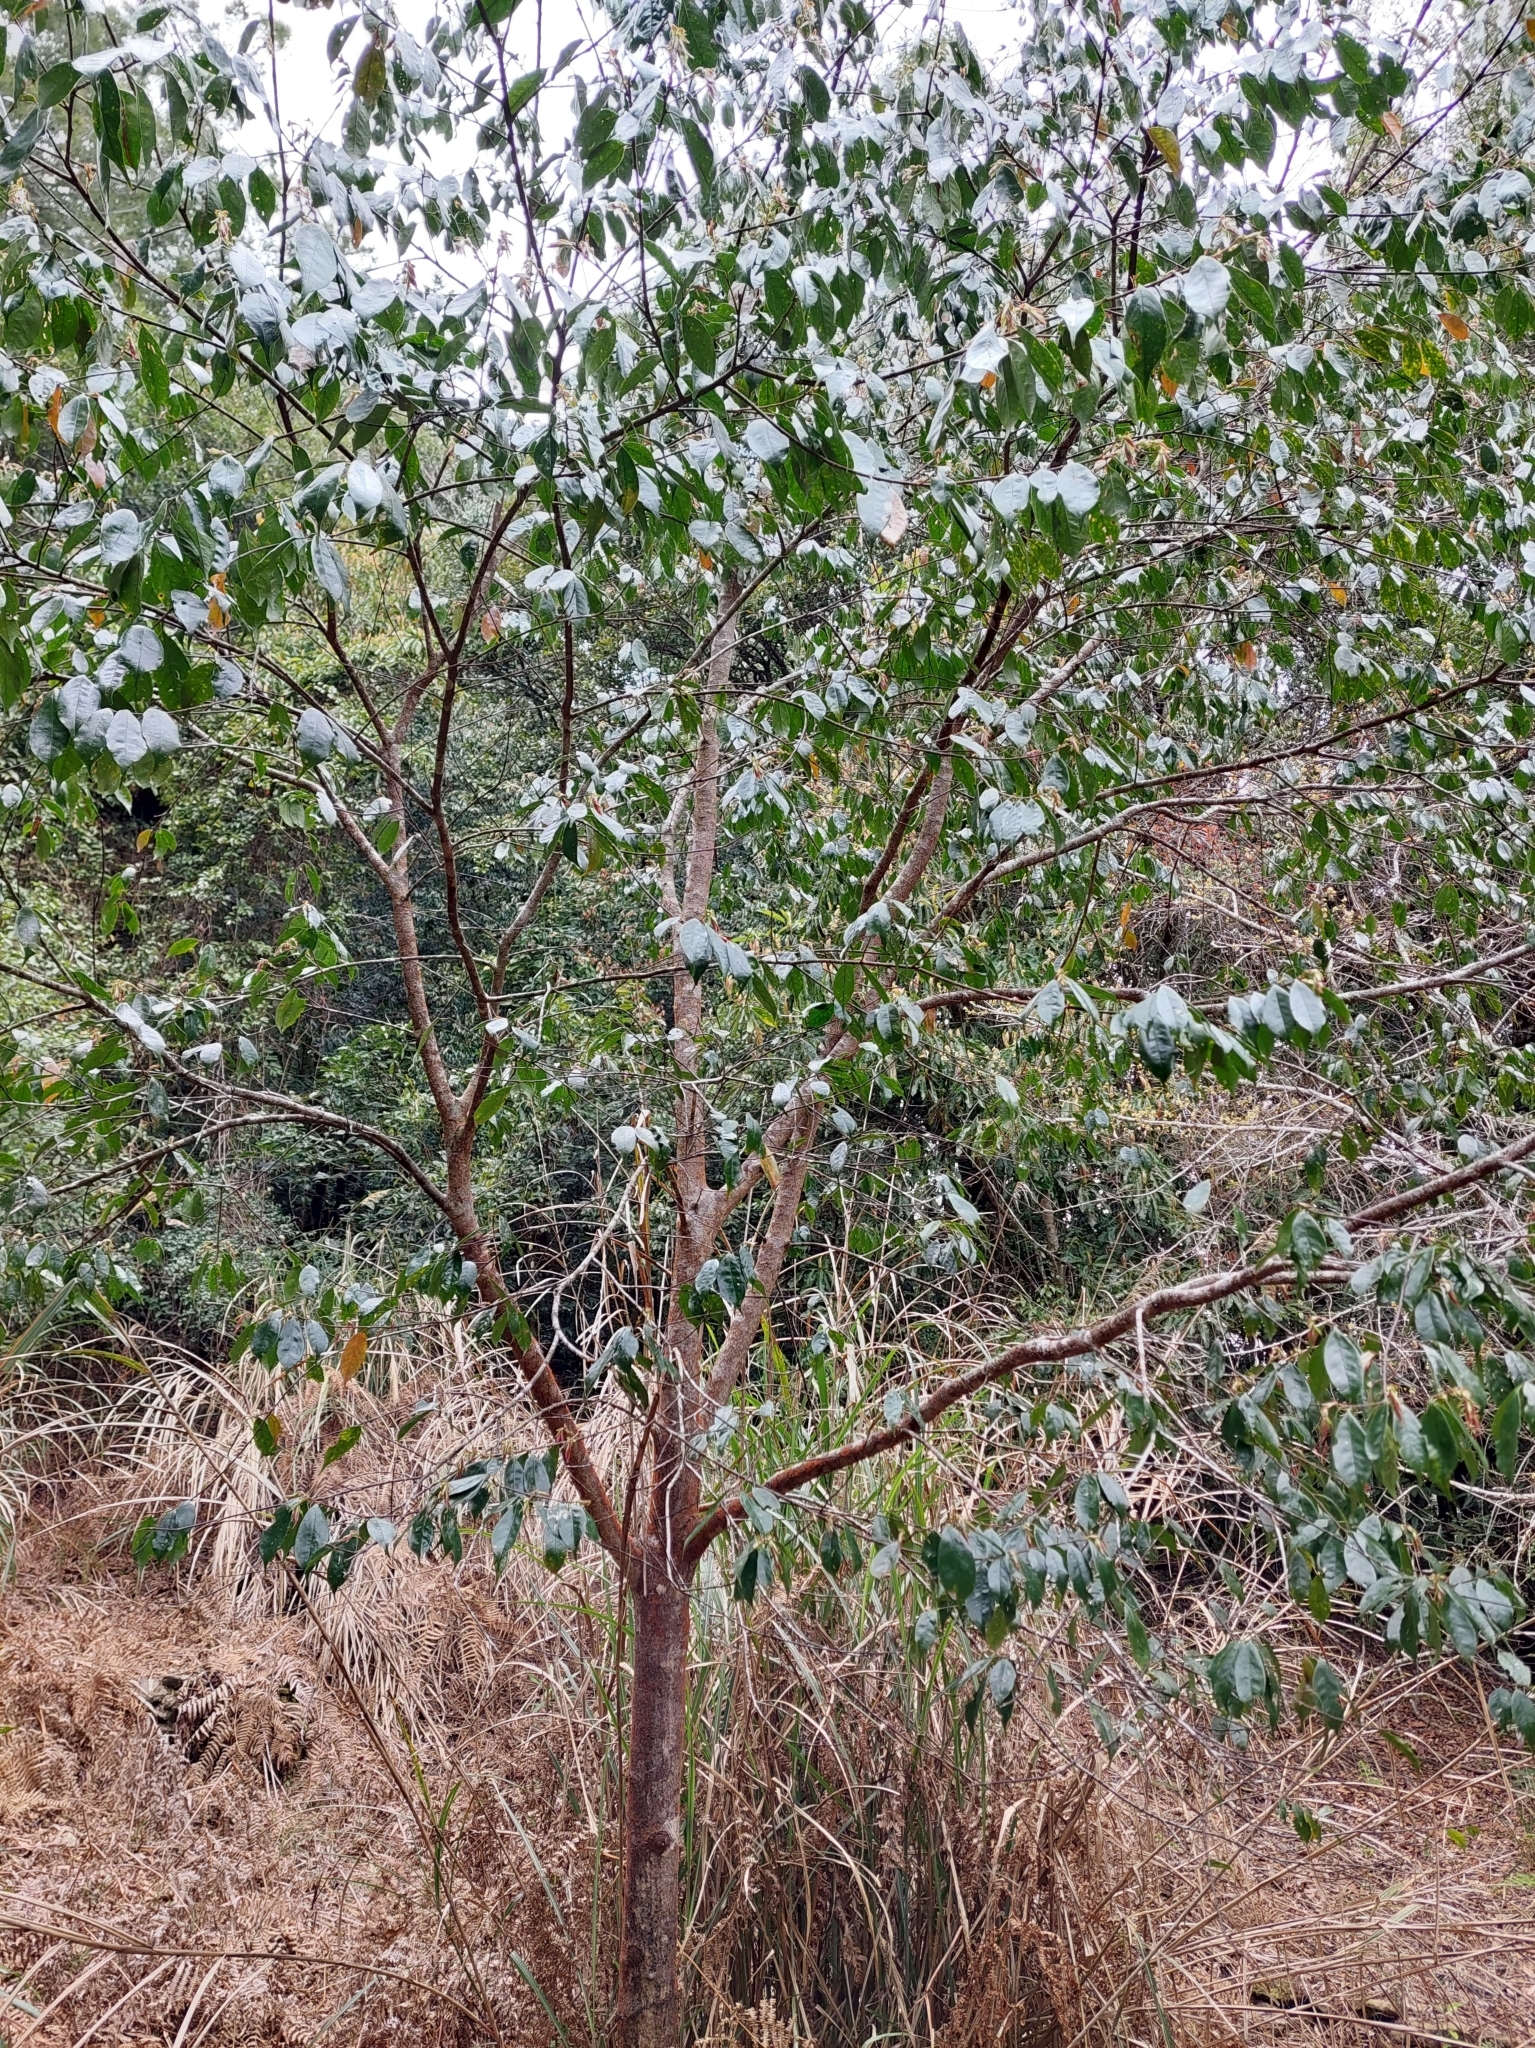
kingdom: Plantae
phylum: Tracheophyta
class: Magnoliopsida
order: Rosales
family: Rosaceae
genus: Prunus
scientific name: Prunus phaeosticta
